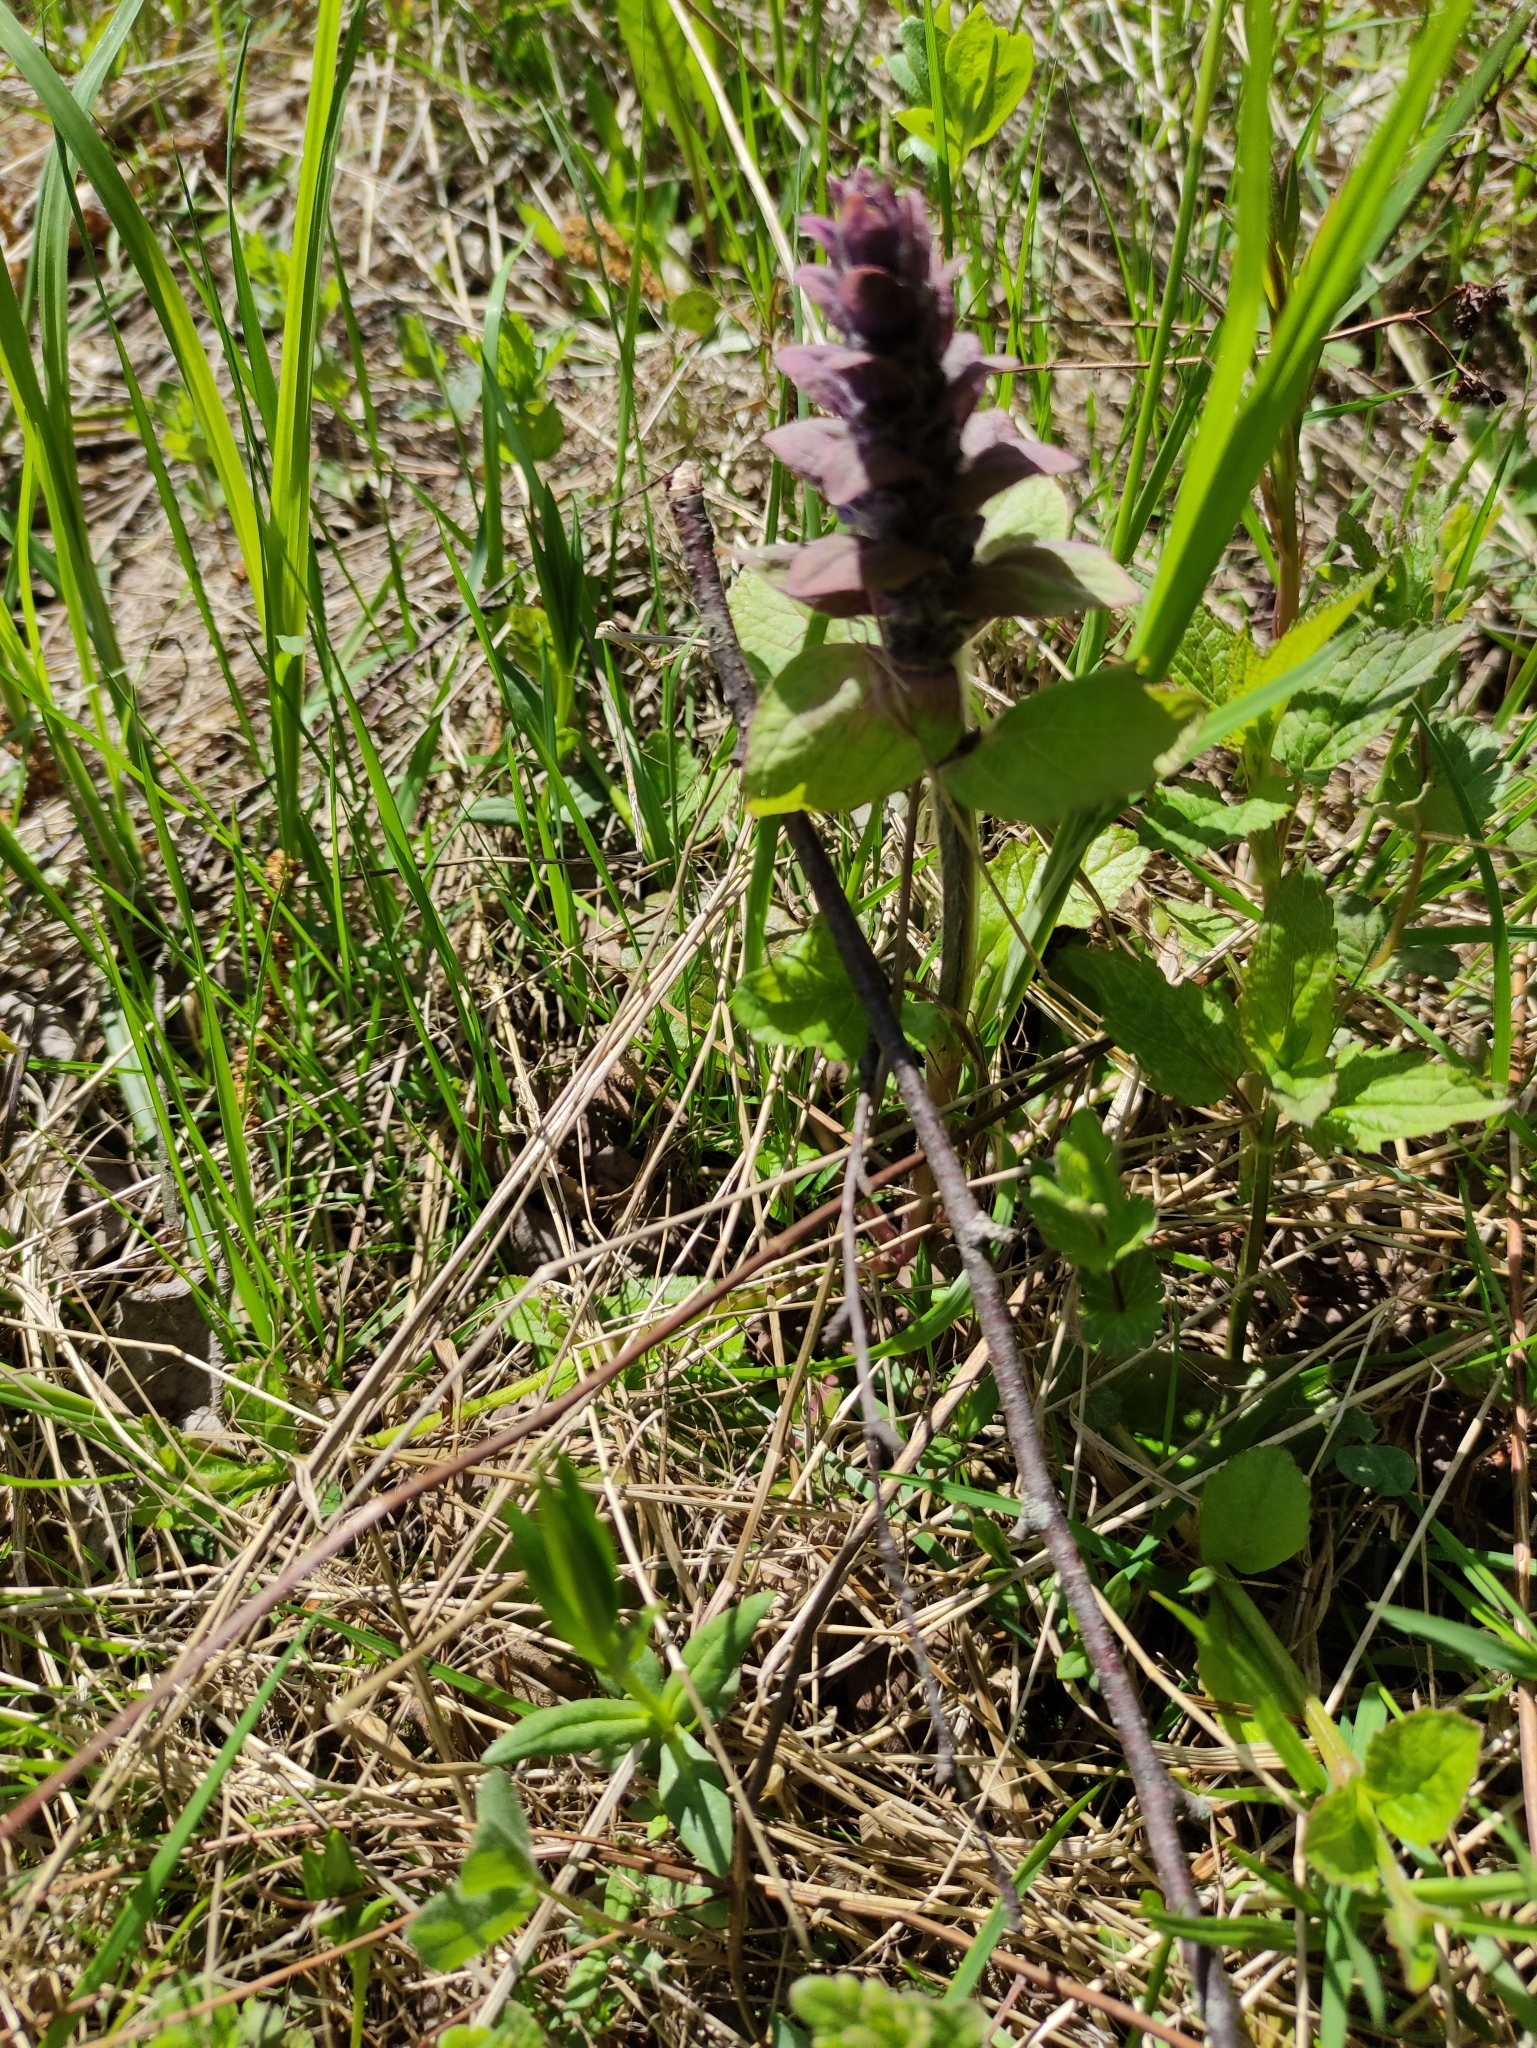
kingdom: Plantae
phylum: Tracheophyta
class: Magnoliopsida
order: Lamiales
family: Lamiaceae
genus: Ajuga
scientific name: Ajuga reptans
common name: Bugle
